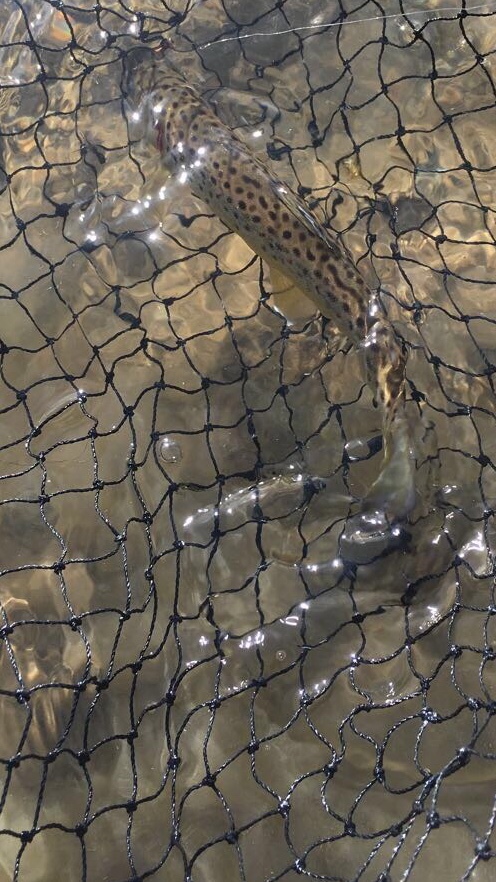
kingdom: Animalia
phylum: Chordata
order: Salmoniformes
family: Salmonidae
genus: Salmo
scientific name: Salmo trutta
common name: Brown trout
